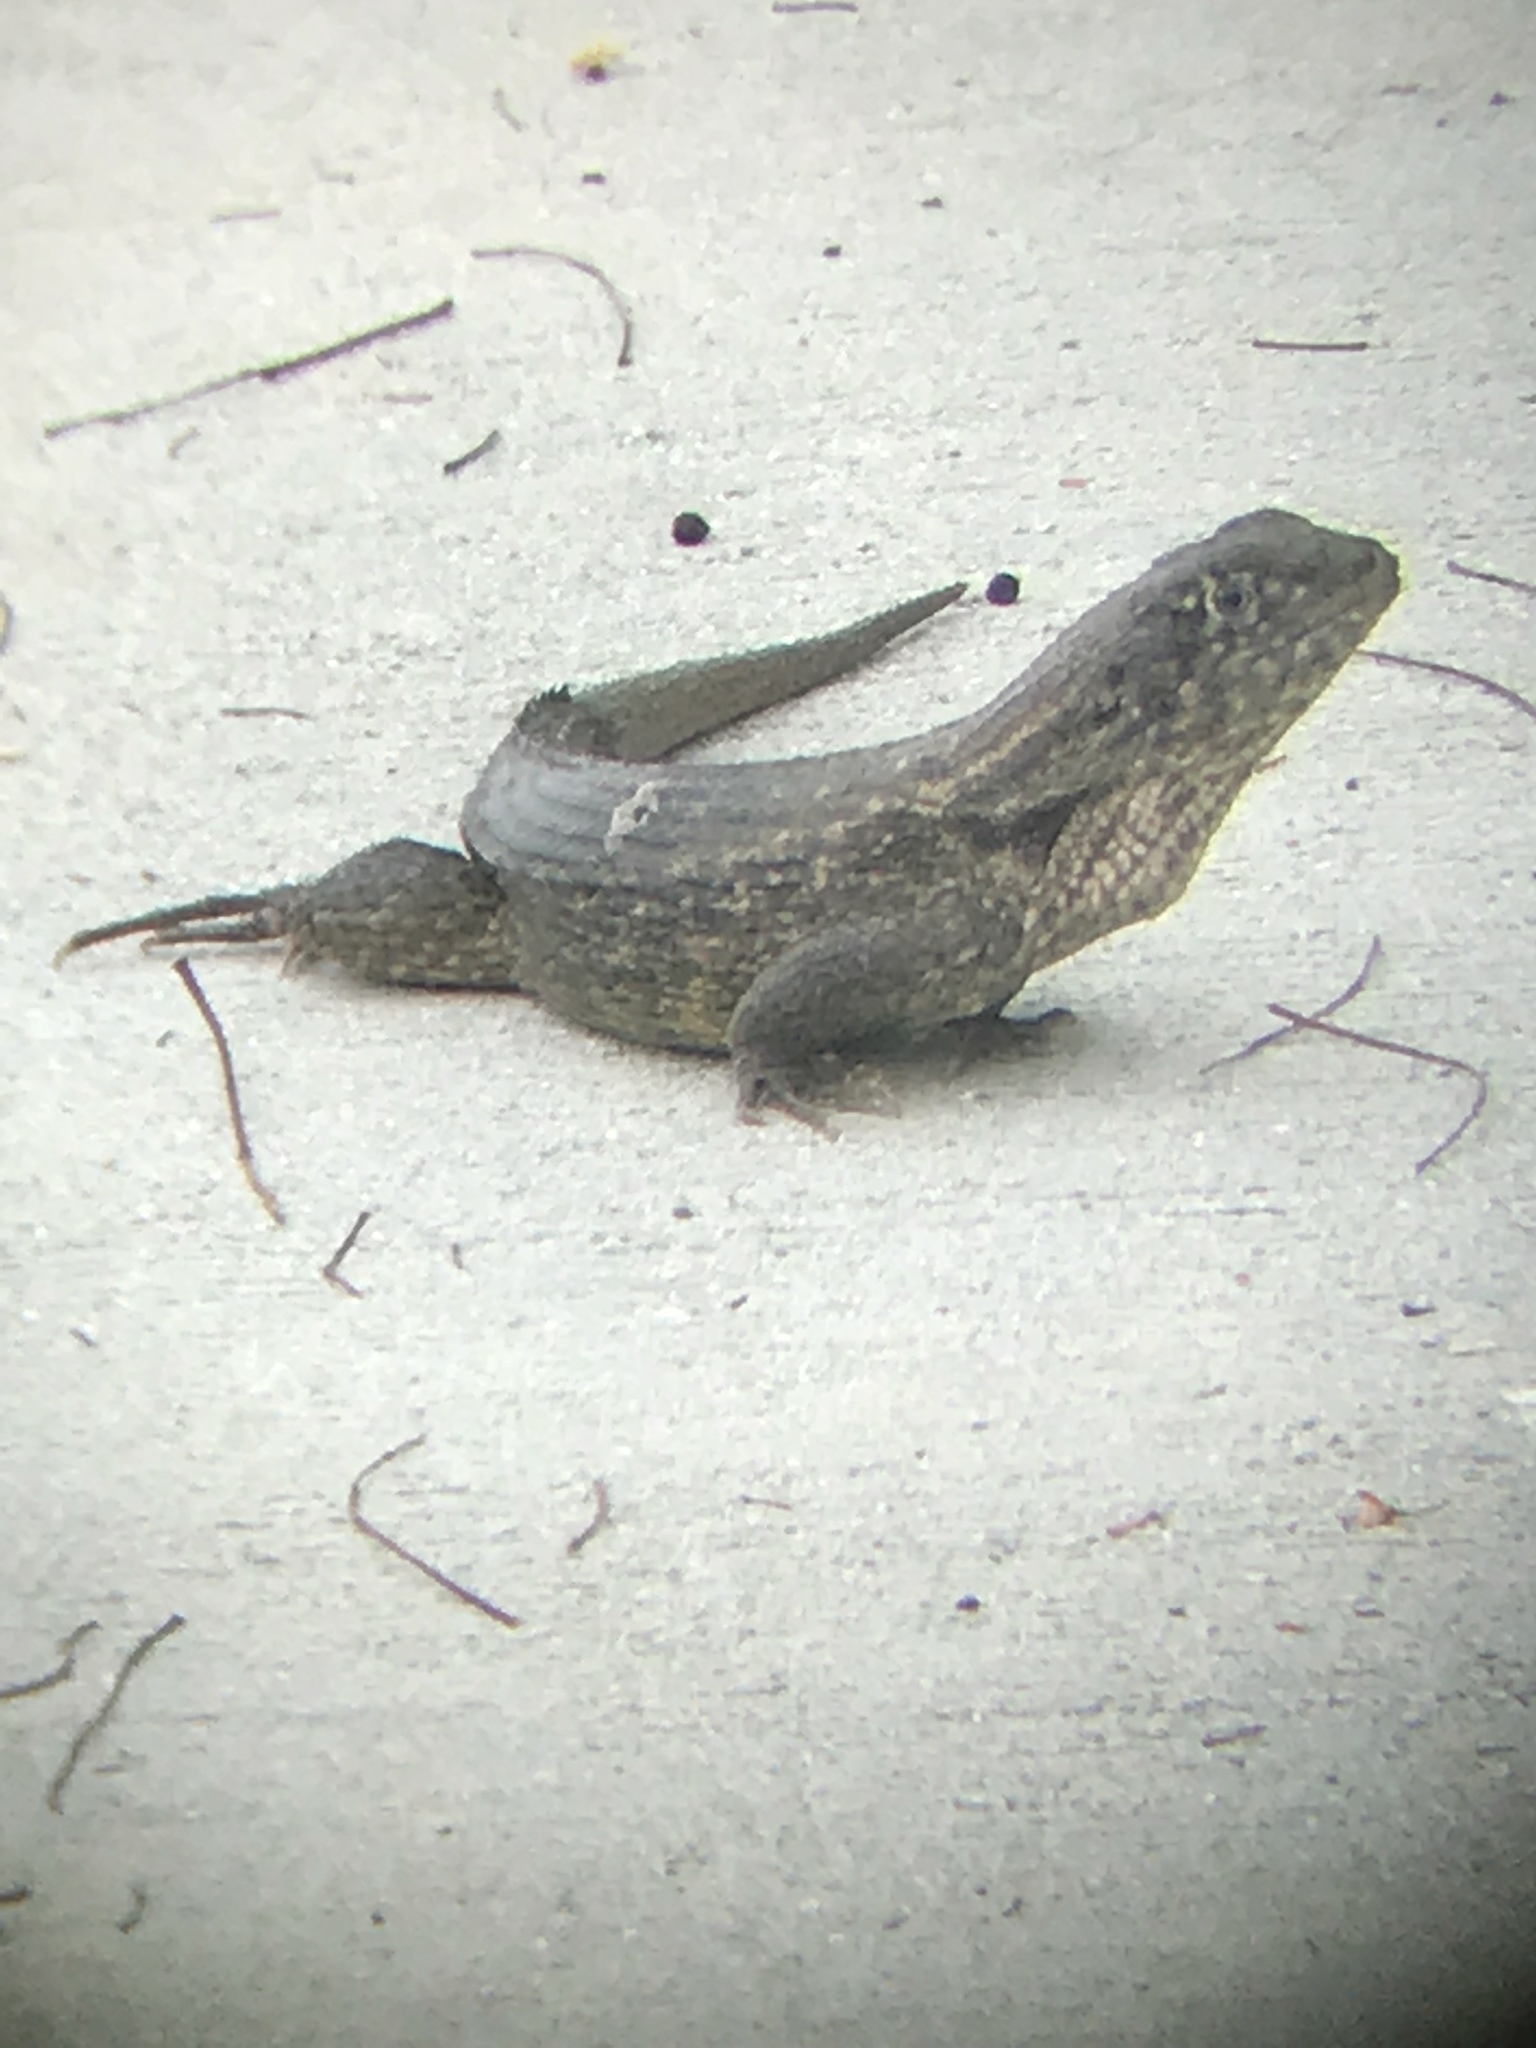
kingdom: Animalia
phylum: Chordata
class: Squamata
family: Leiocephalidae
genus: Leiocephalus
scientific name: Leiocephalus carinatus
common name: Northern curly-tailed lizard
